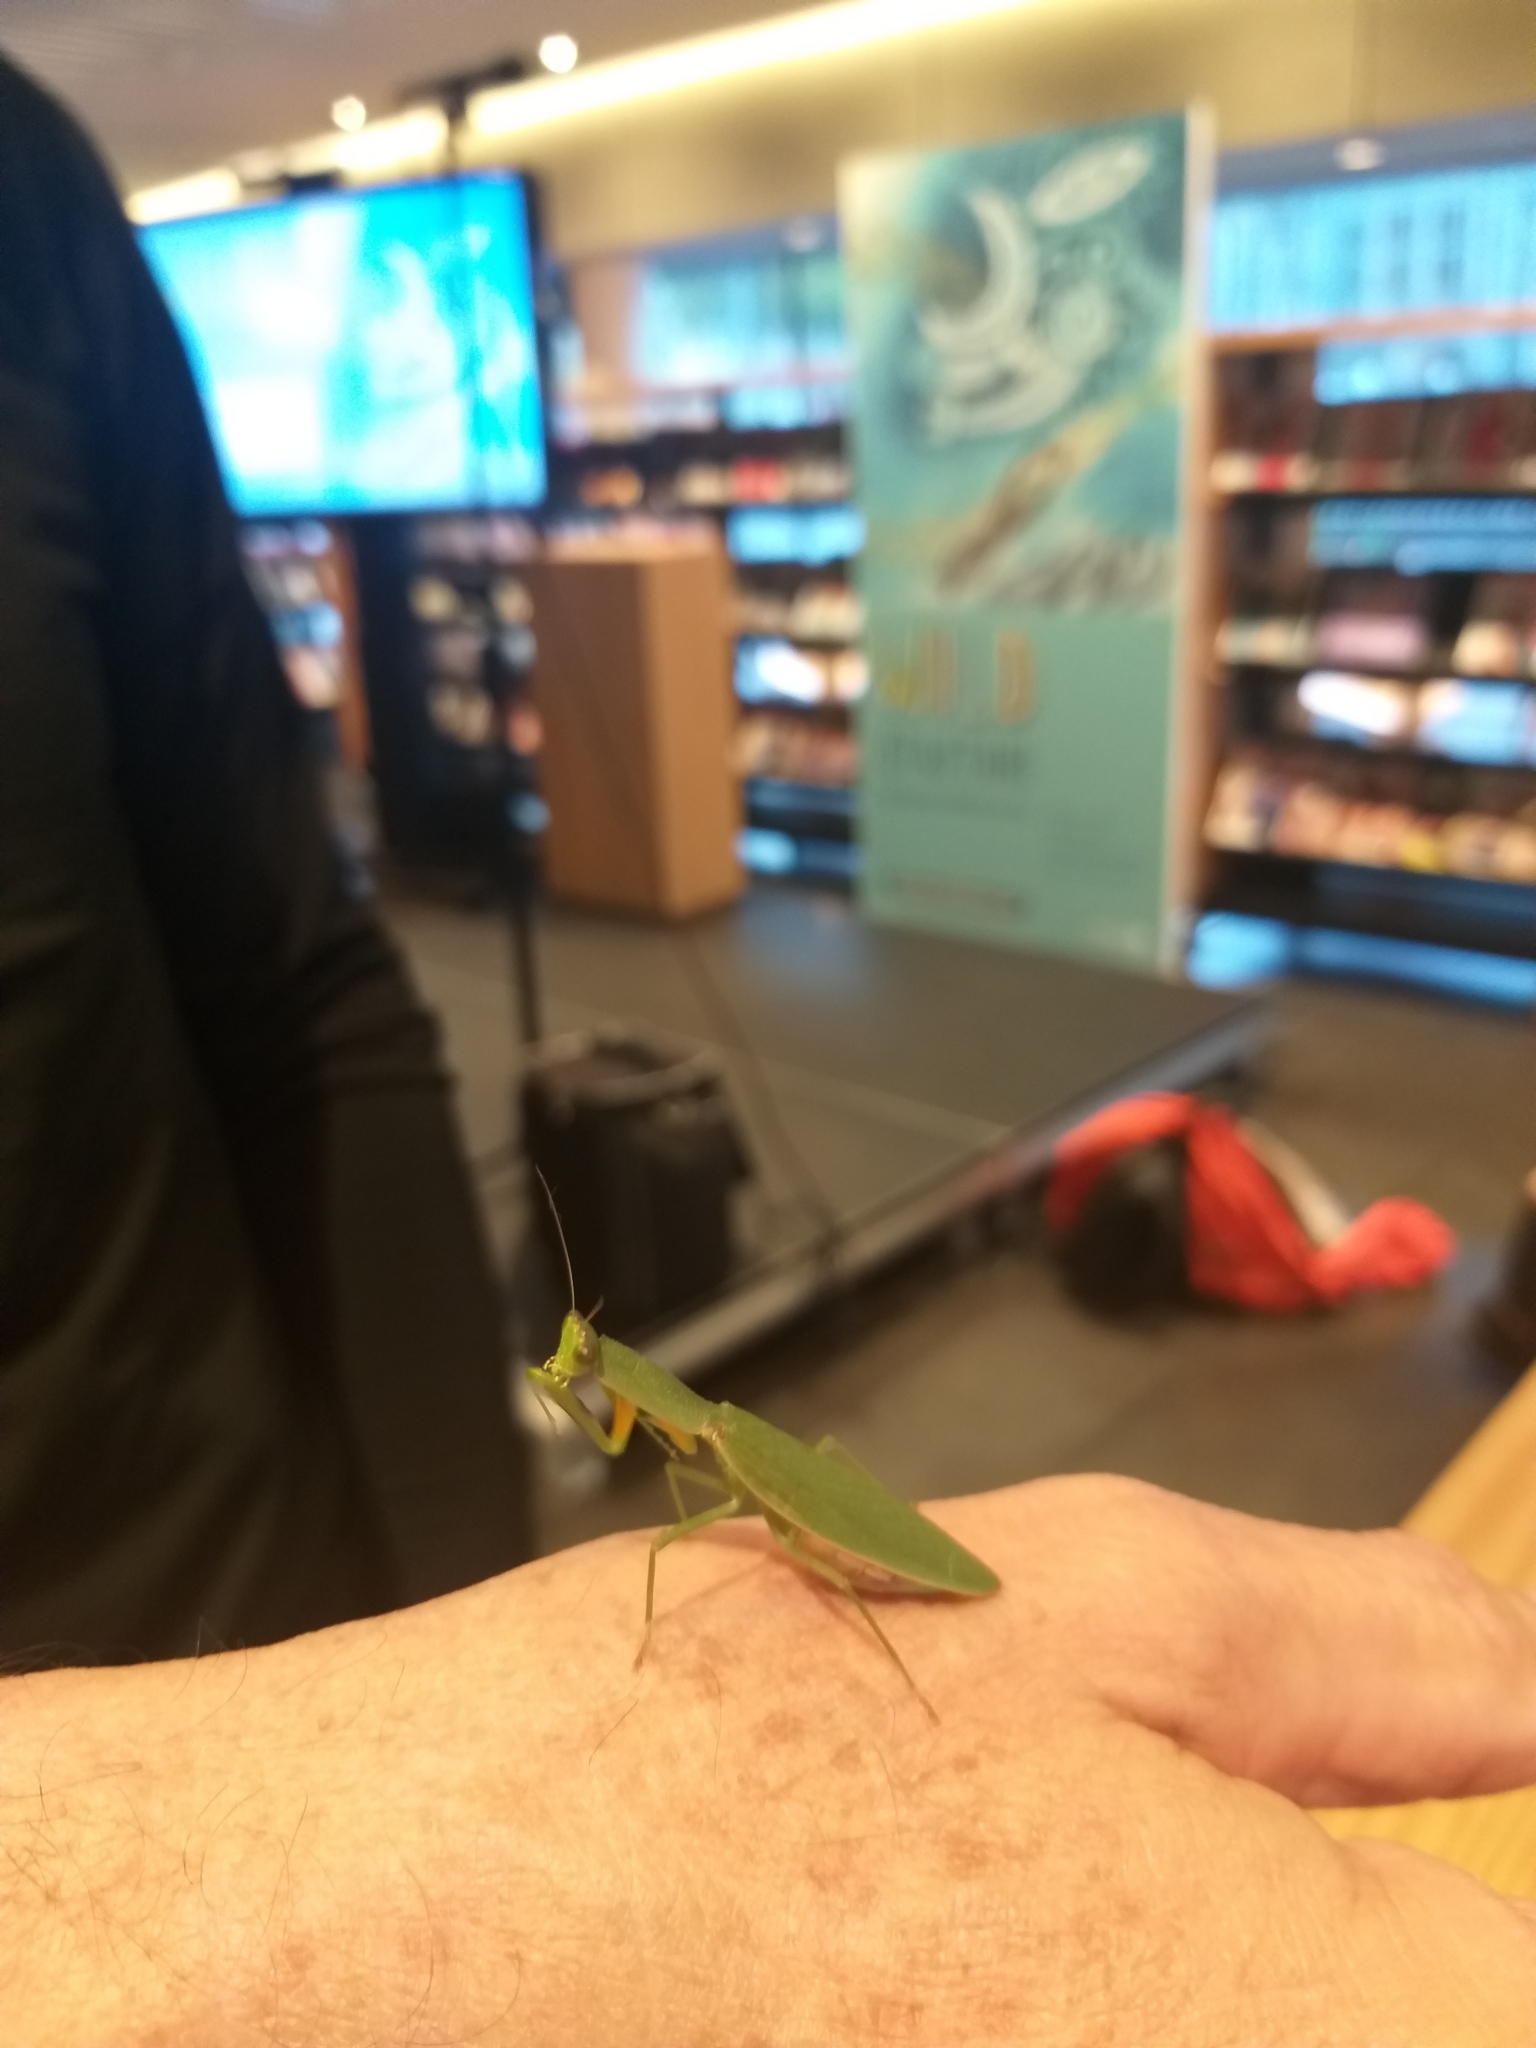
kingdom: Animalia
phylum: Arthropoda
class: Insecta
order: Mantodea
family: Mantidae
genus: Orthodera
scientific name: Orthodera novaezealandiae
